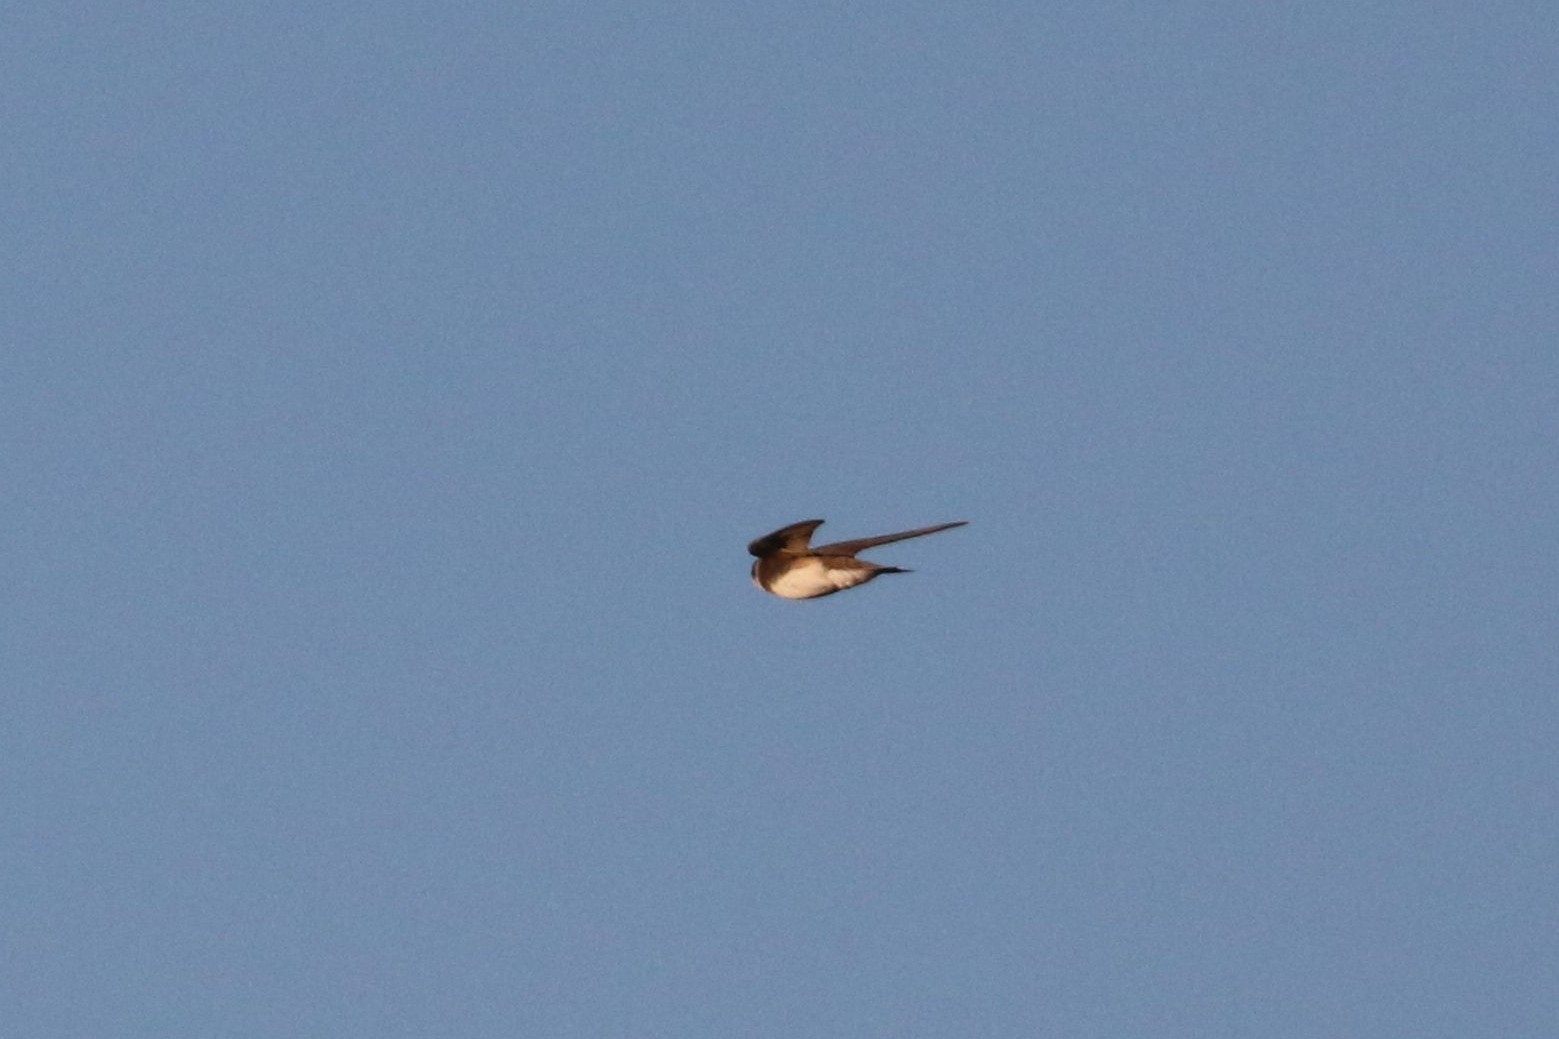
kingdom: Animalia
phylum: Chordata
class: Aves
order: Passeriformes
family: Hirundinidae
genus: Riparia
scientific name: Riparia riparia
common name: Sand martin
